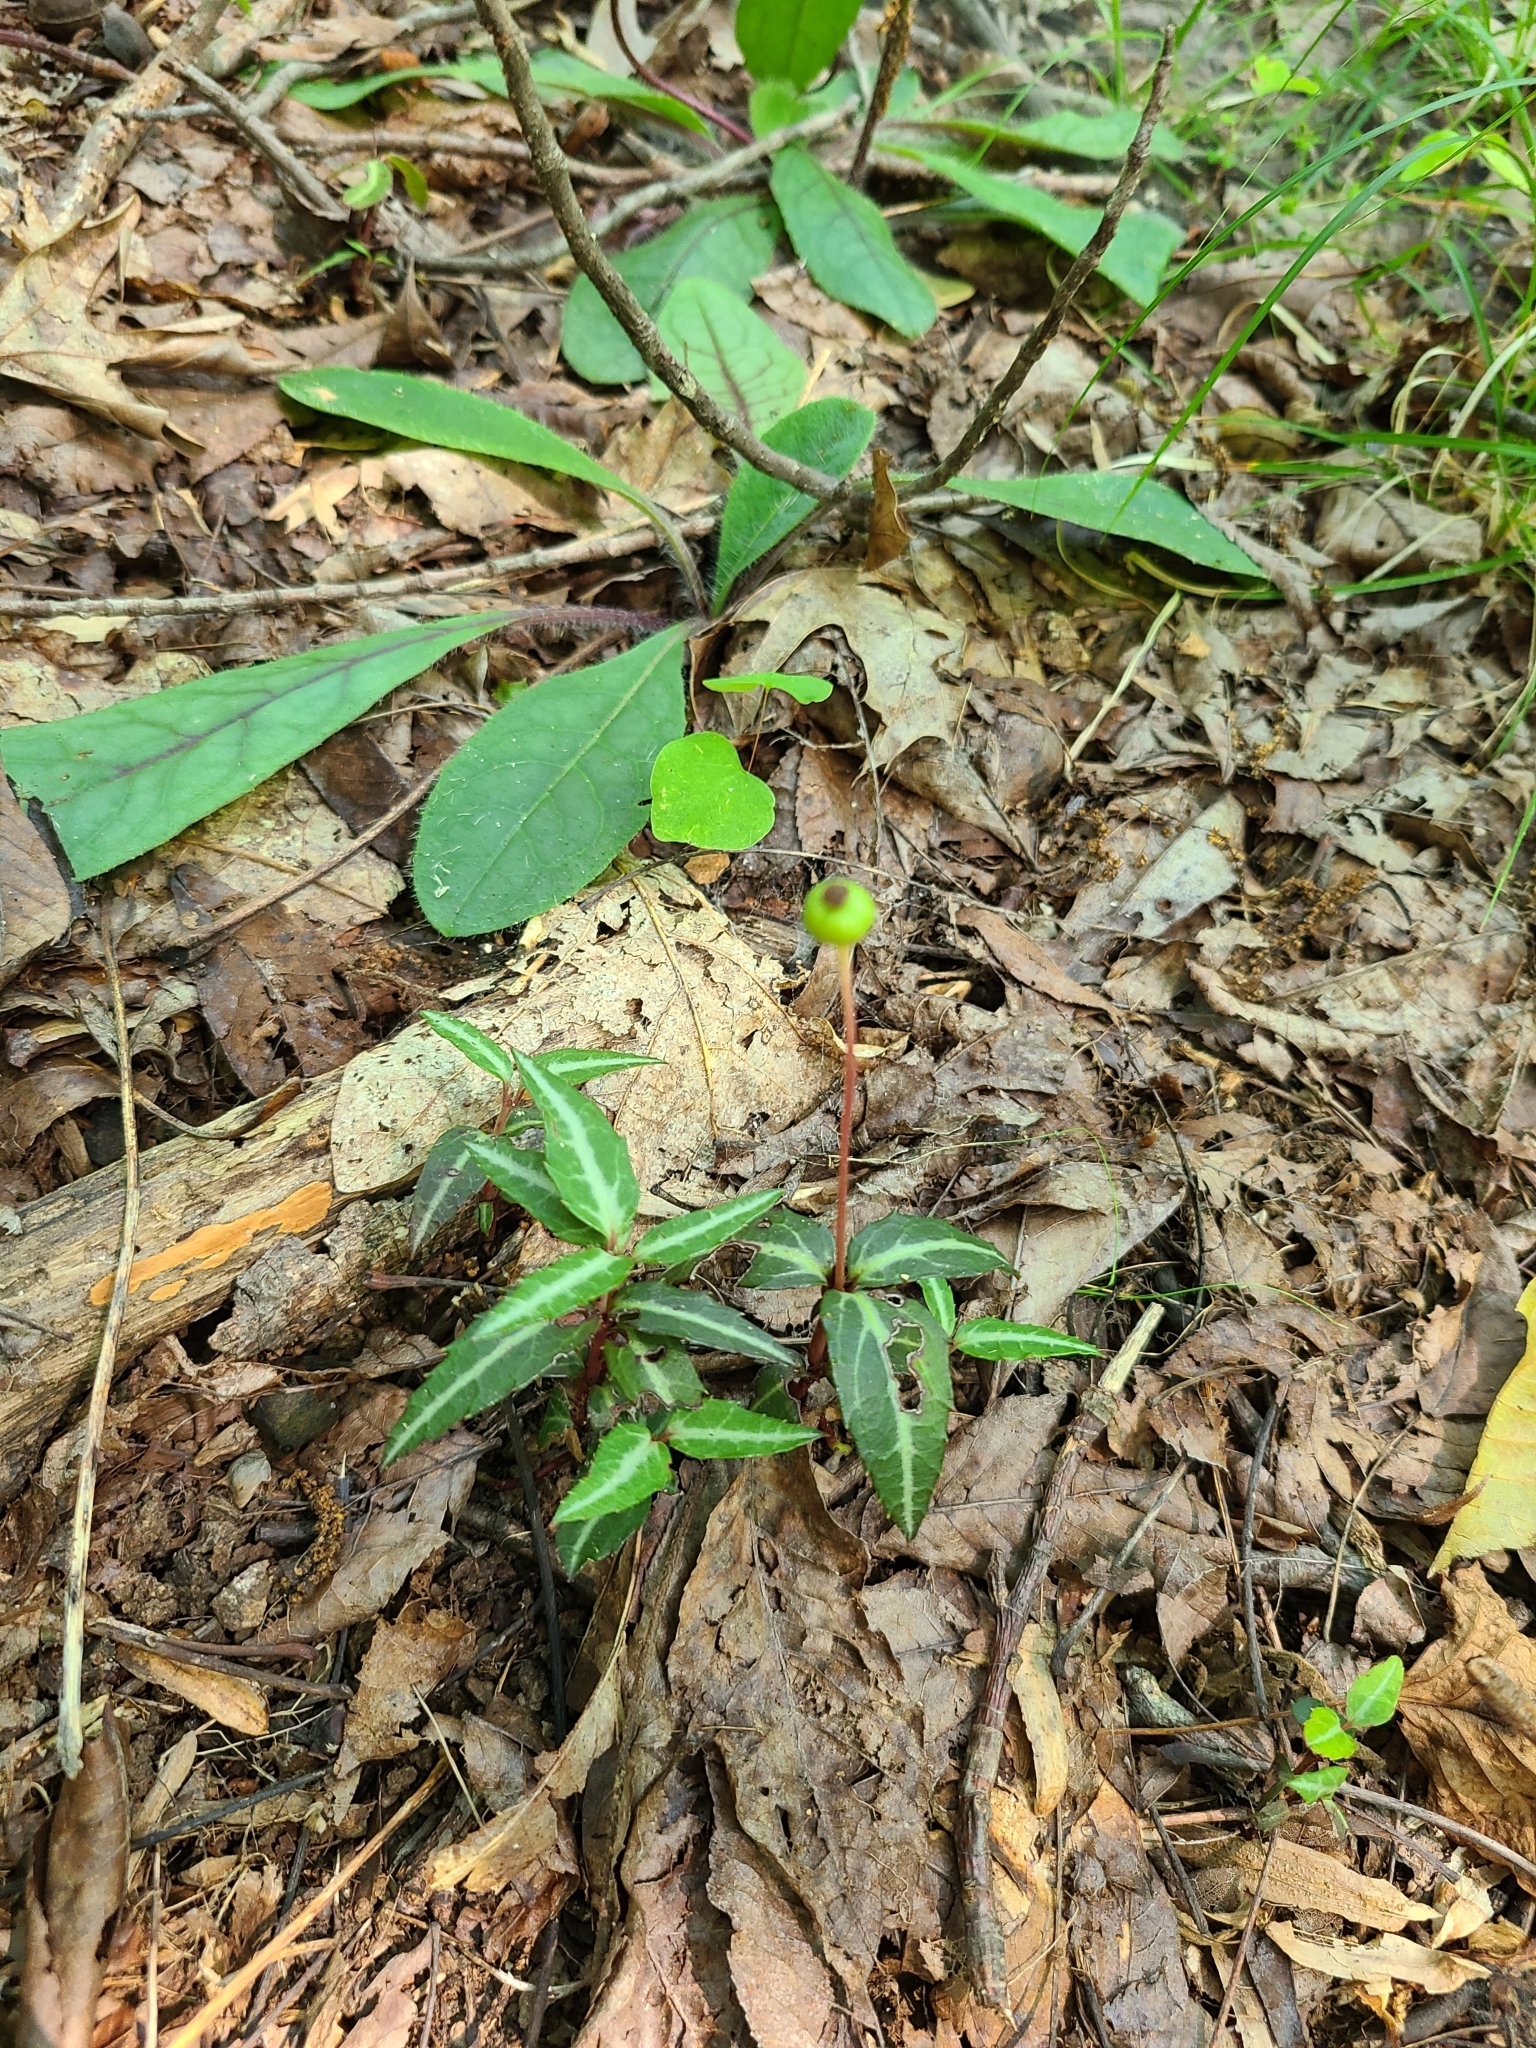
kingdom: Plantae
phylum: Tracheophyta
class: Magnoliopsida
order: Ericales
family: Ericaceae
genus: Chimaphila
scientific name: Chimaphila maculata
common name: Spotted pipsissewa
